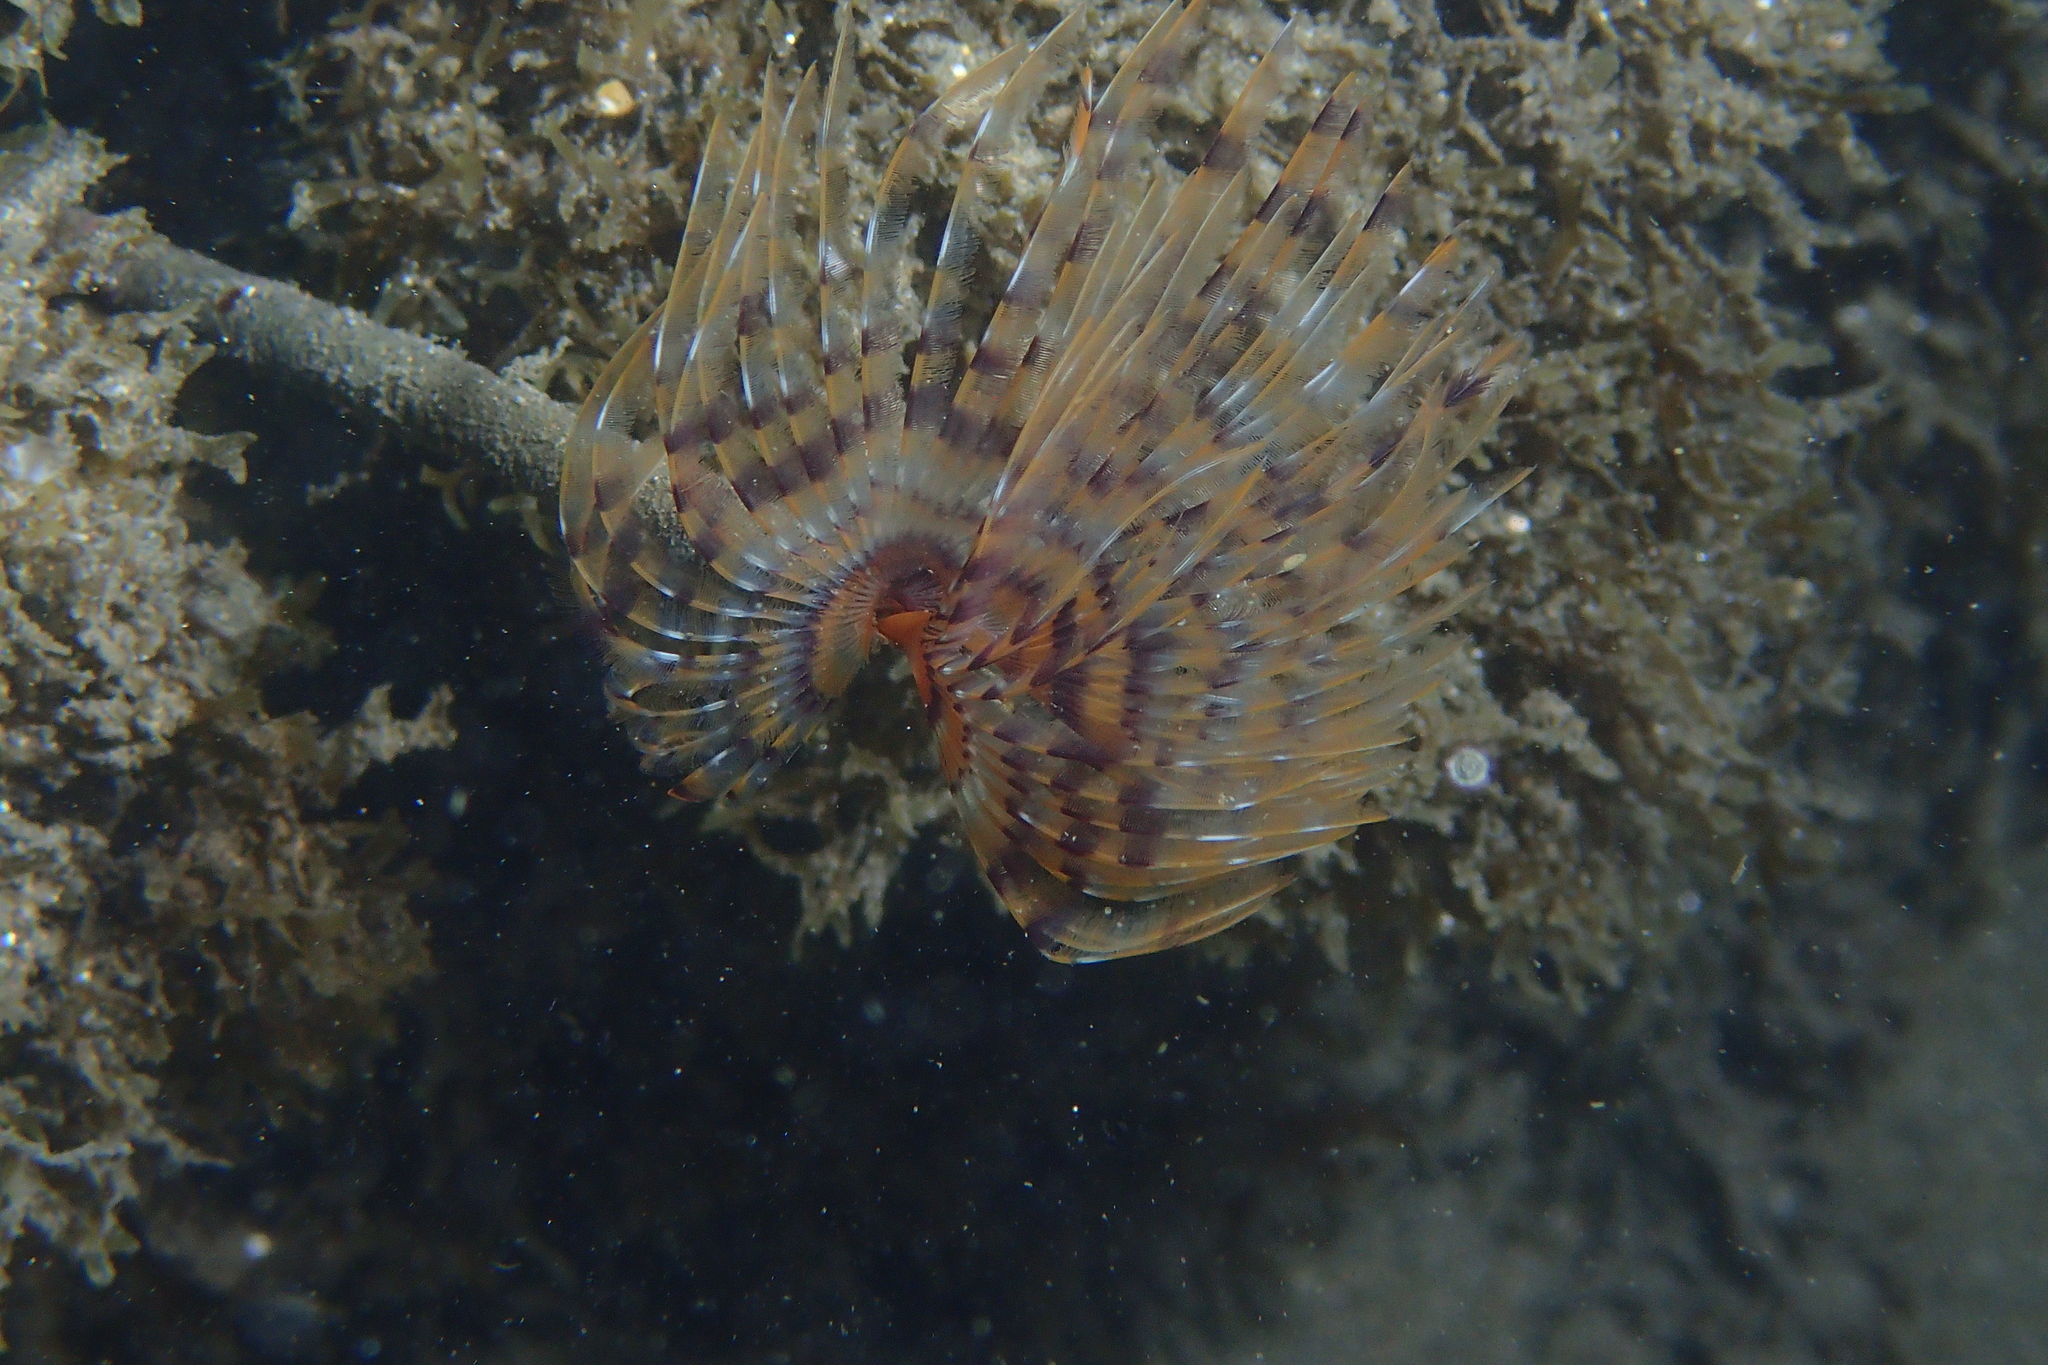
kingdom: Animalia
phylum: Annelida
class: Polychaeta
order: Sabellida
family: Sabellidae
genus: Sabella
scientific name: Sabella spallanzanii
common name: Feather duster worm
